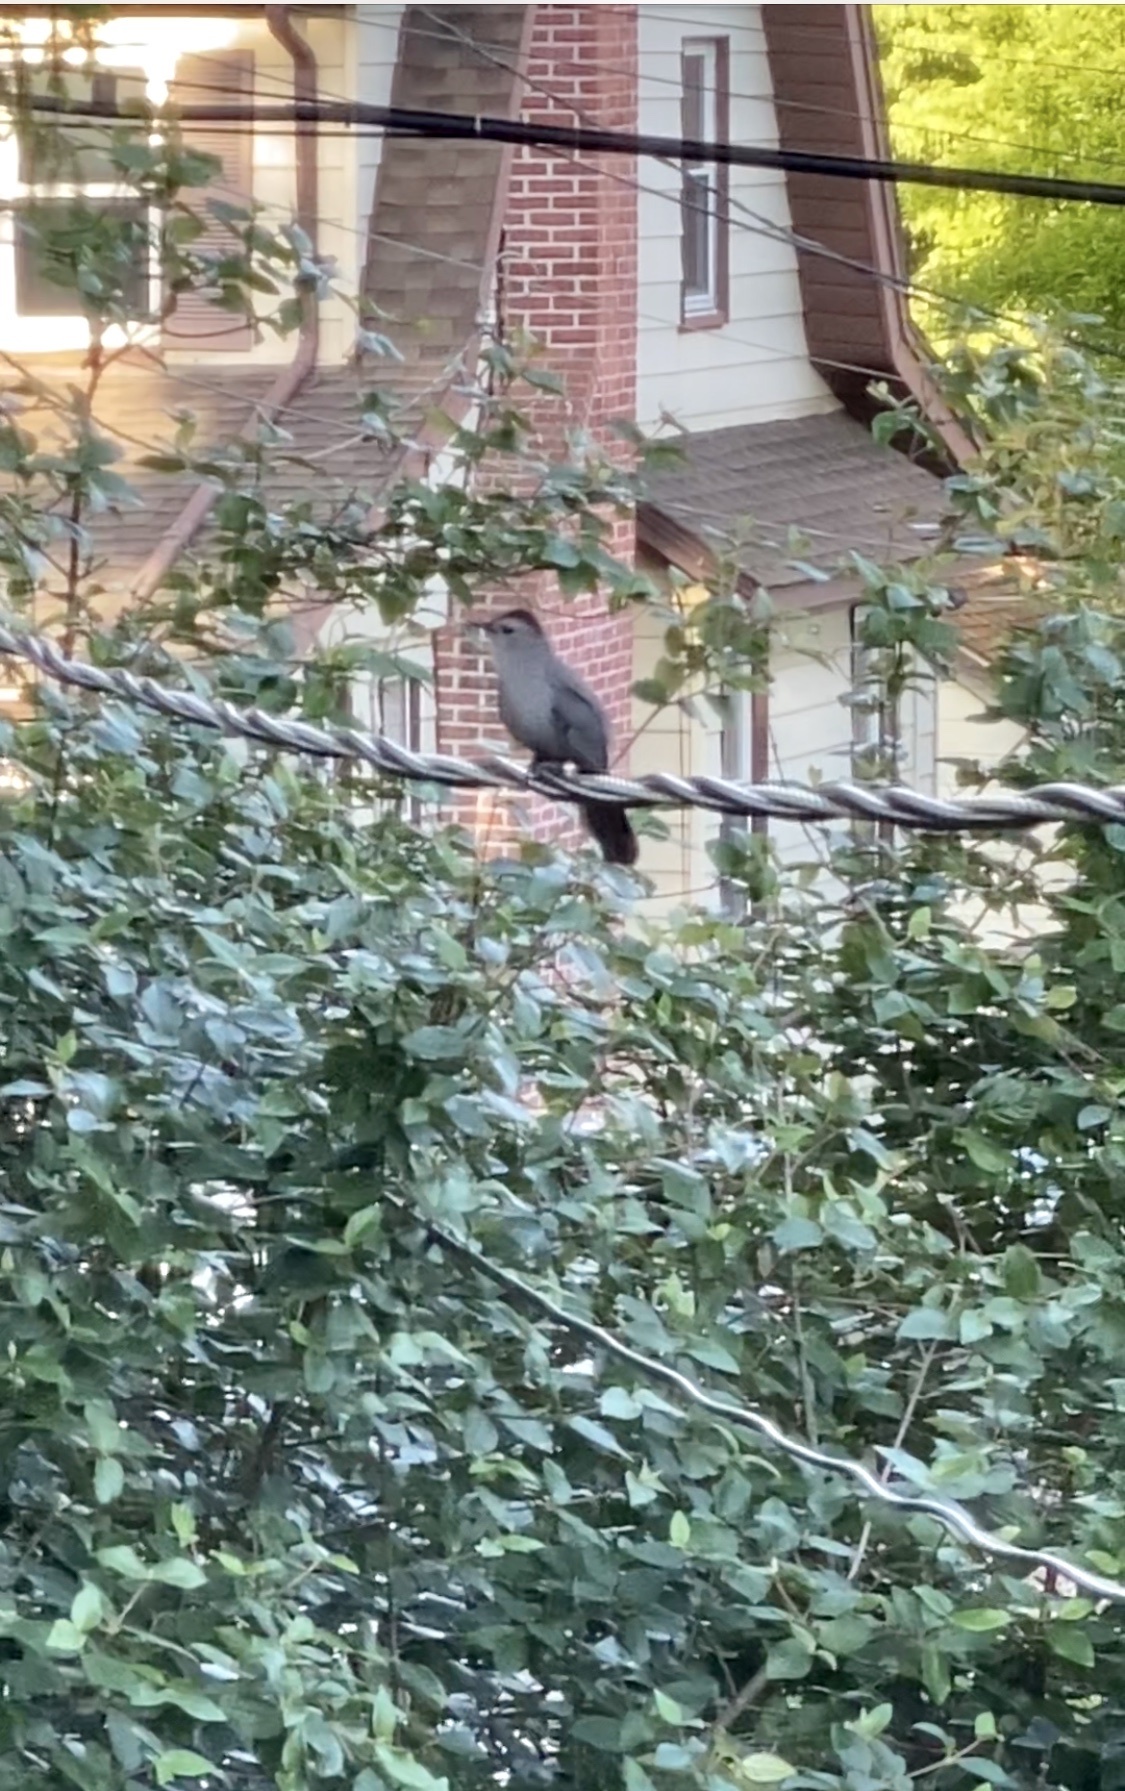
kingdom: Animalia
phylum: Chordata
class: Aves
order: Passeriformes
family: Mimidae
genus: Dumetella
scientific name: Dumetella carolinensis
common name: Gray catbird
